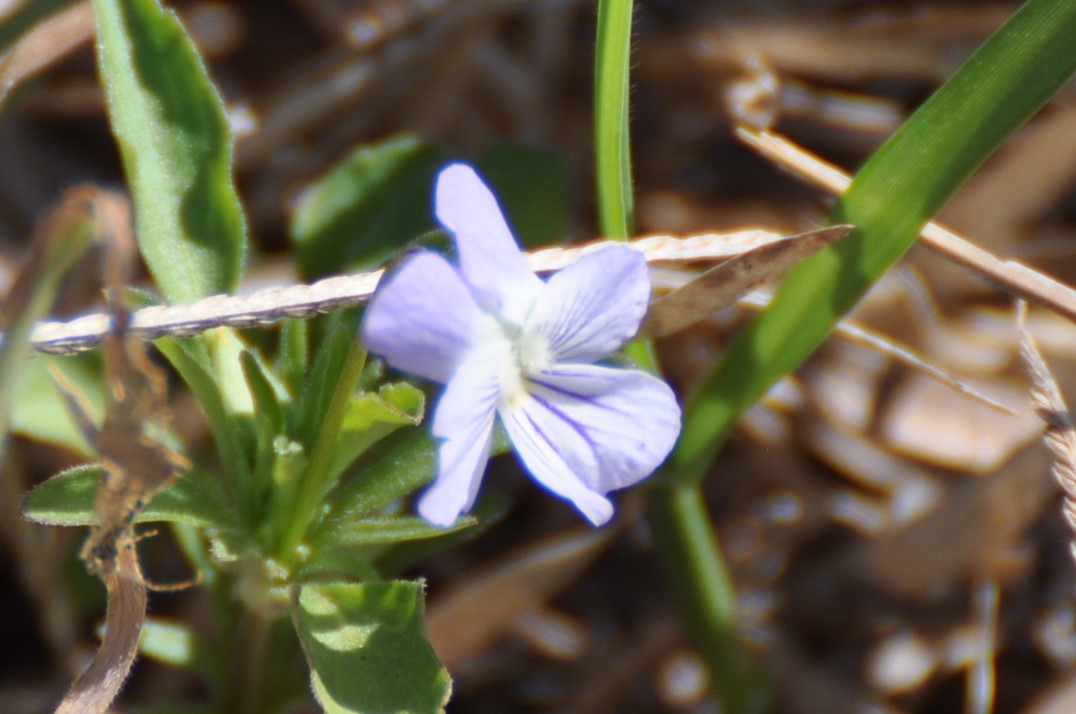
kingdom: Plantae
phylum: Tracheophyta
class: Magnoliopsida
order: Malpighiales
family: Violaceae
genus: Viola
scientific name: Viola rafinesquei
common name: American field pansy
